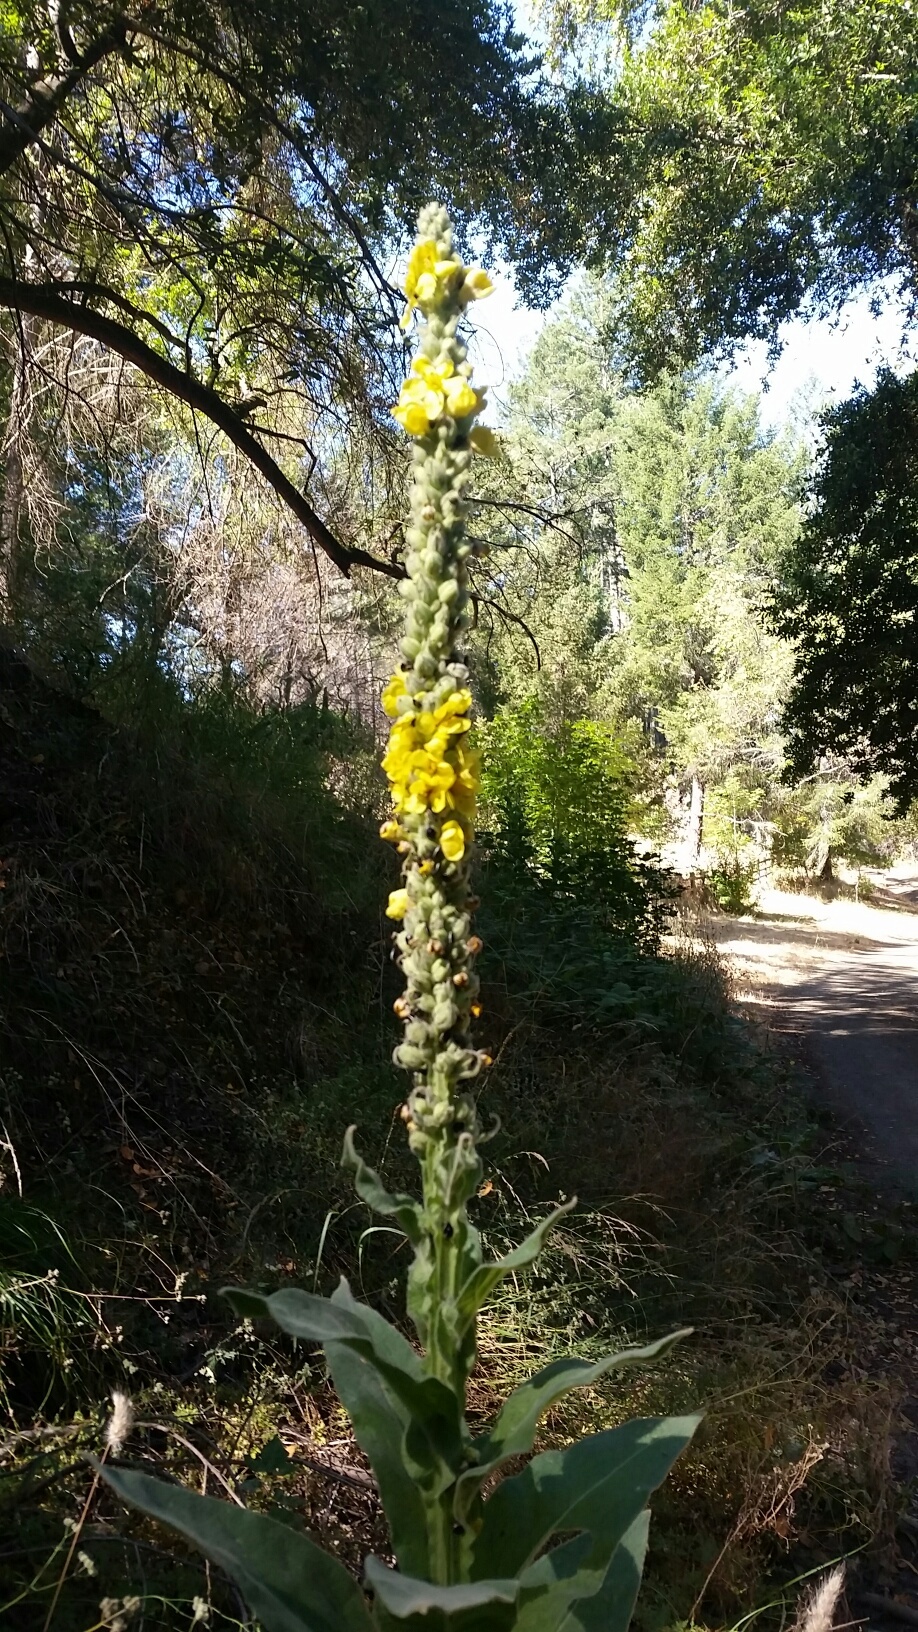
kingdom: Plantae
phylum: Tracheophyta
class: Magnoliopsida
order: Lamiales
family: Scrophulariaceae
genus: Verbascum
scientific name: Verbascum thapsus
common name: Common mullein
